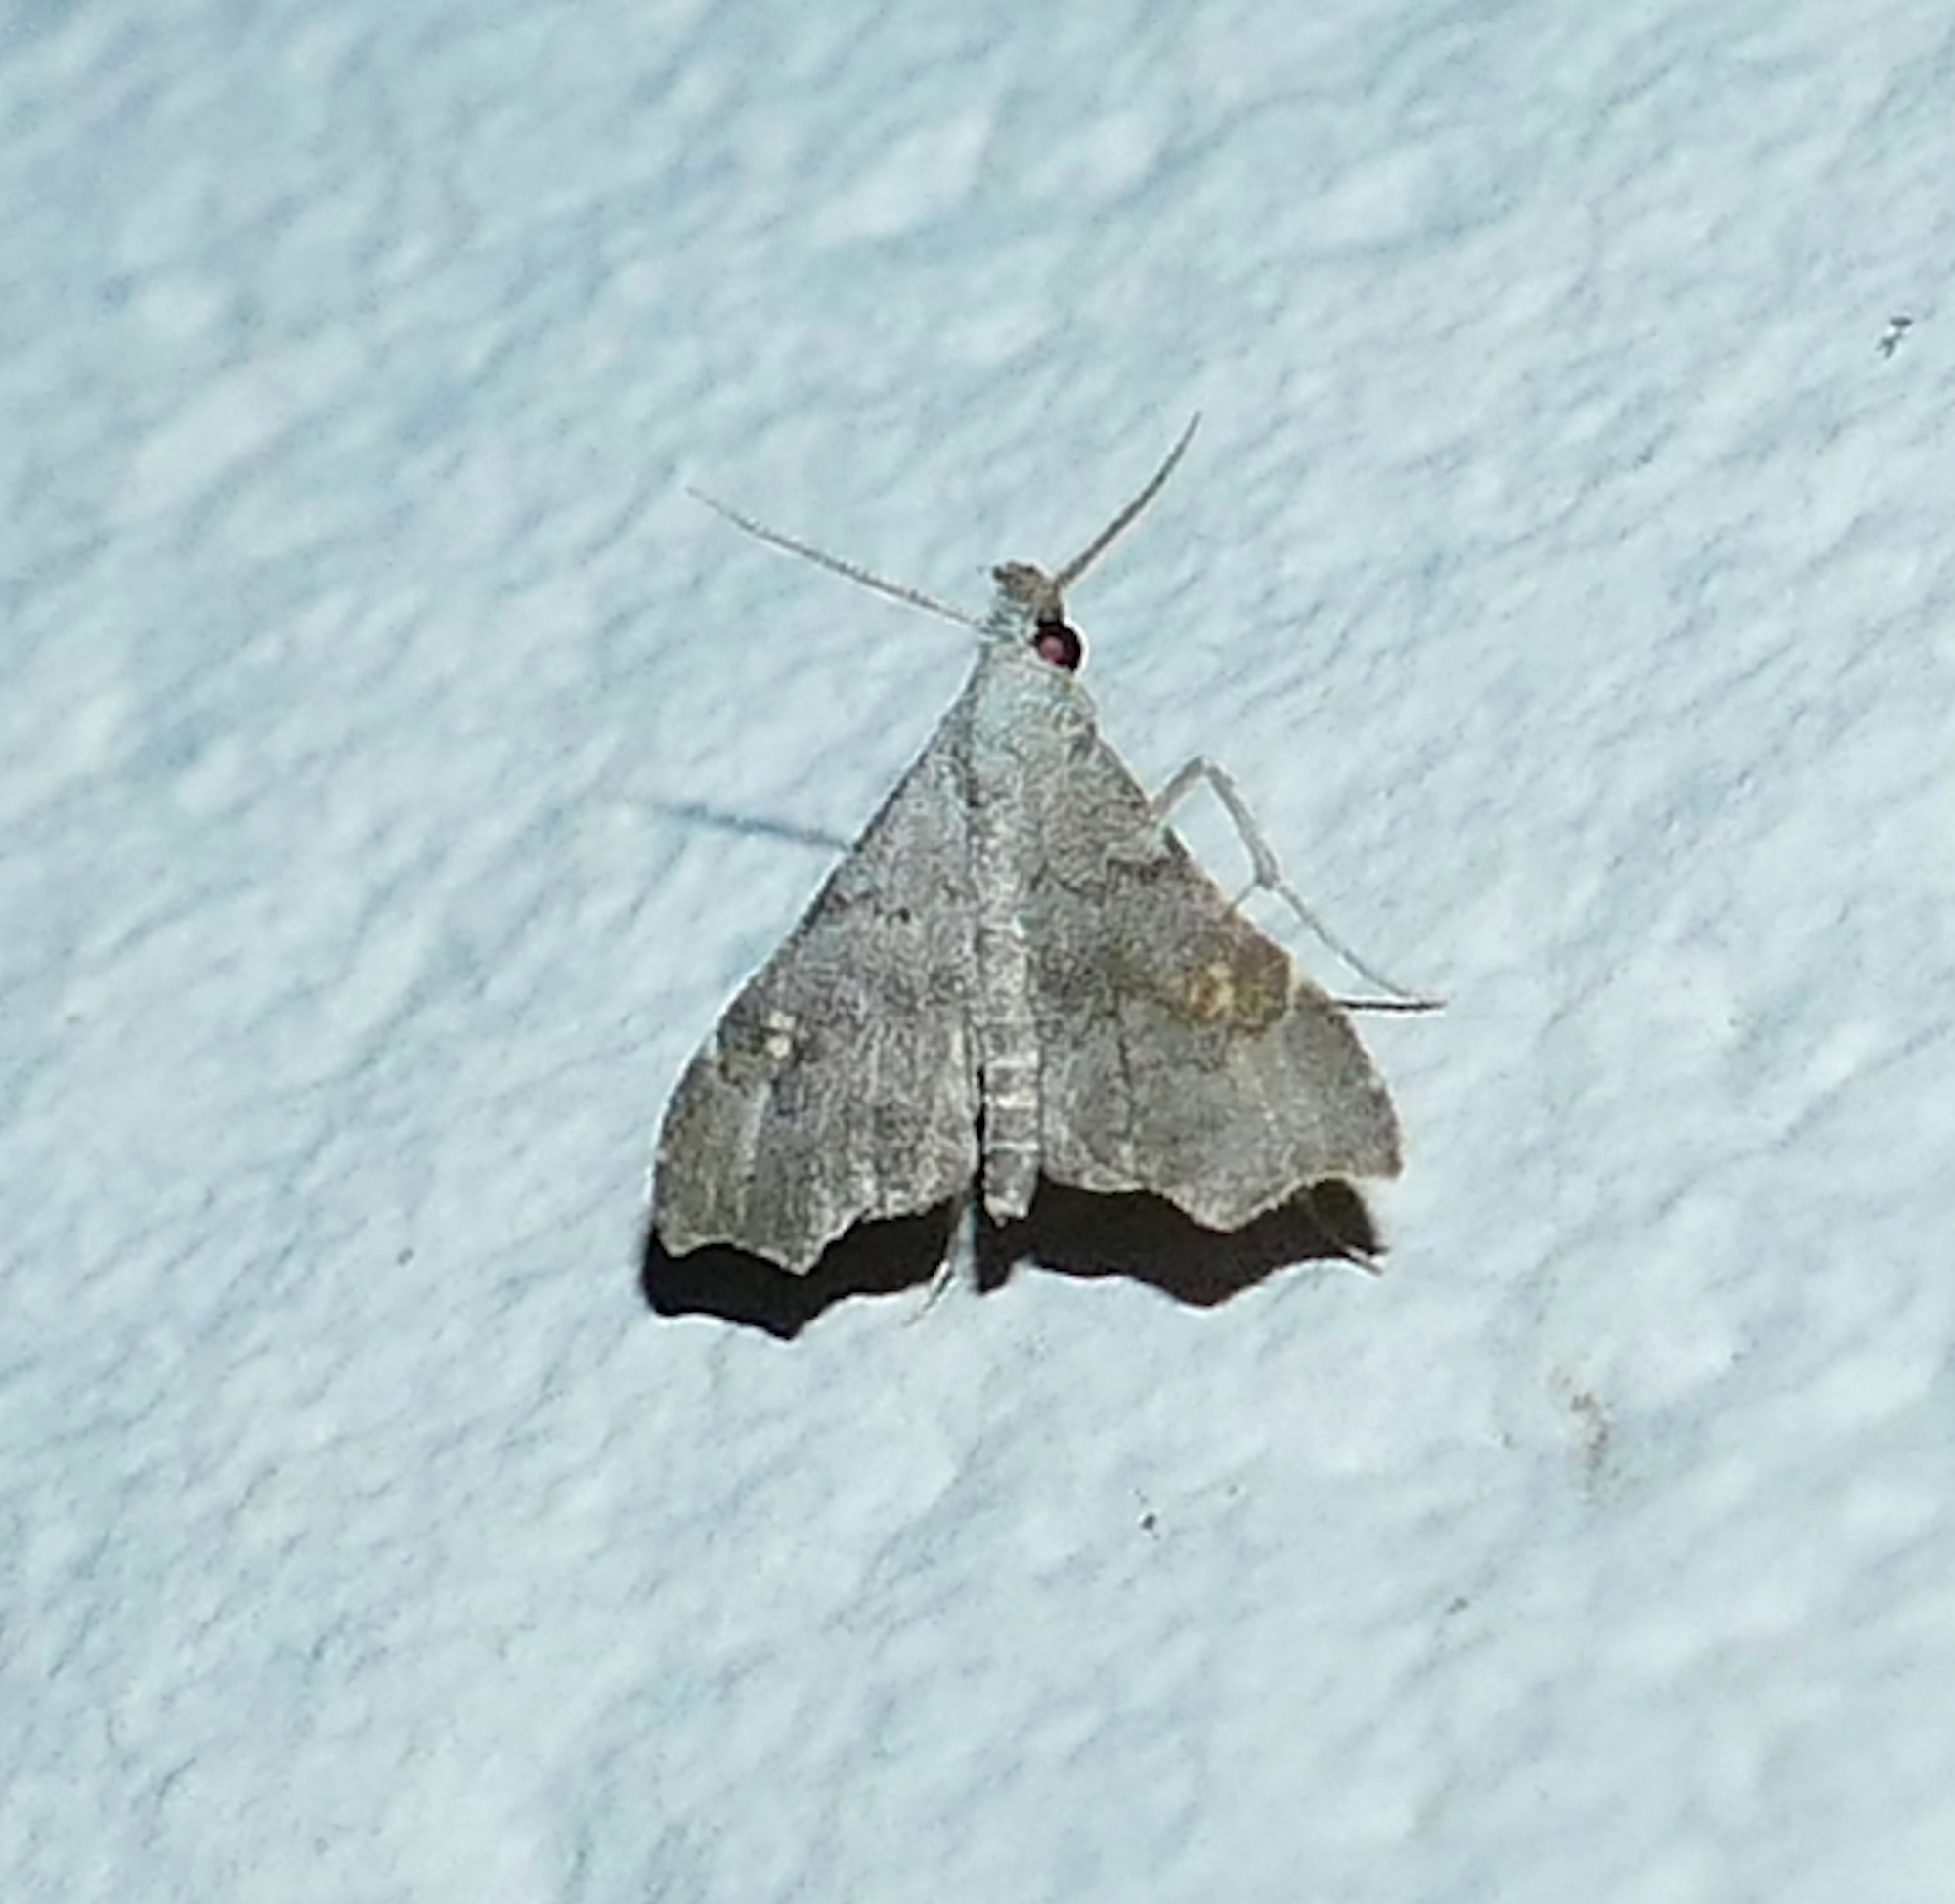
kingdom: Animalia
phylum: Arthropoda
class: Insecta
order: Lepidoptera
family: Erebidae
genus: Redectis
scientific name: Redectis vitrea
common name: White-spotted redectis
